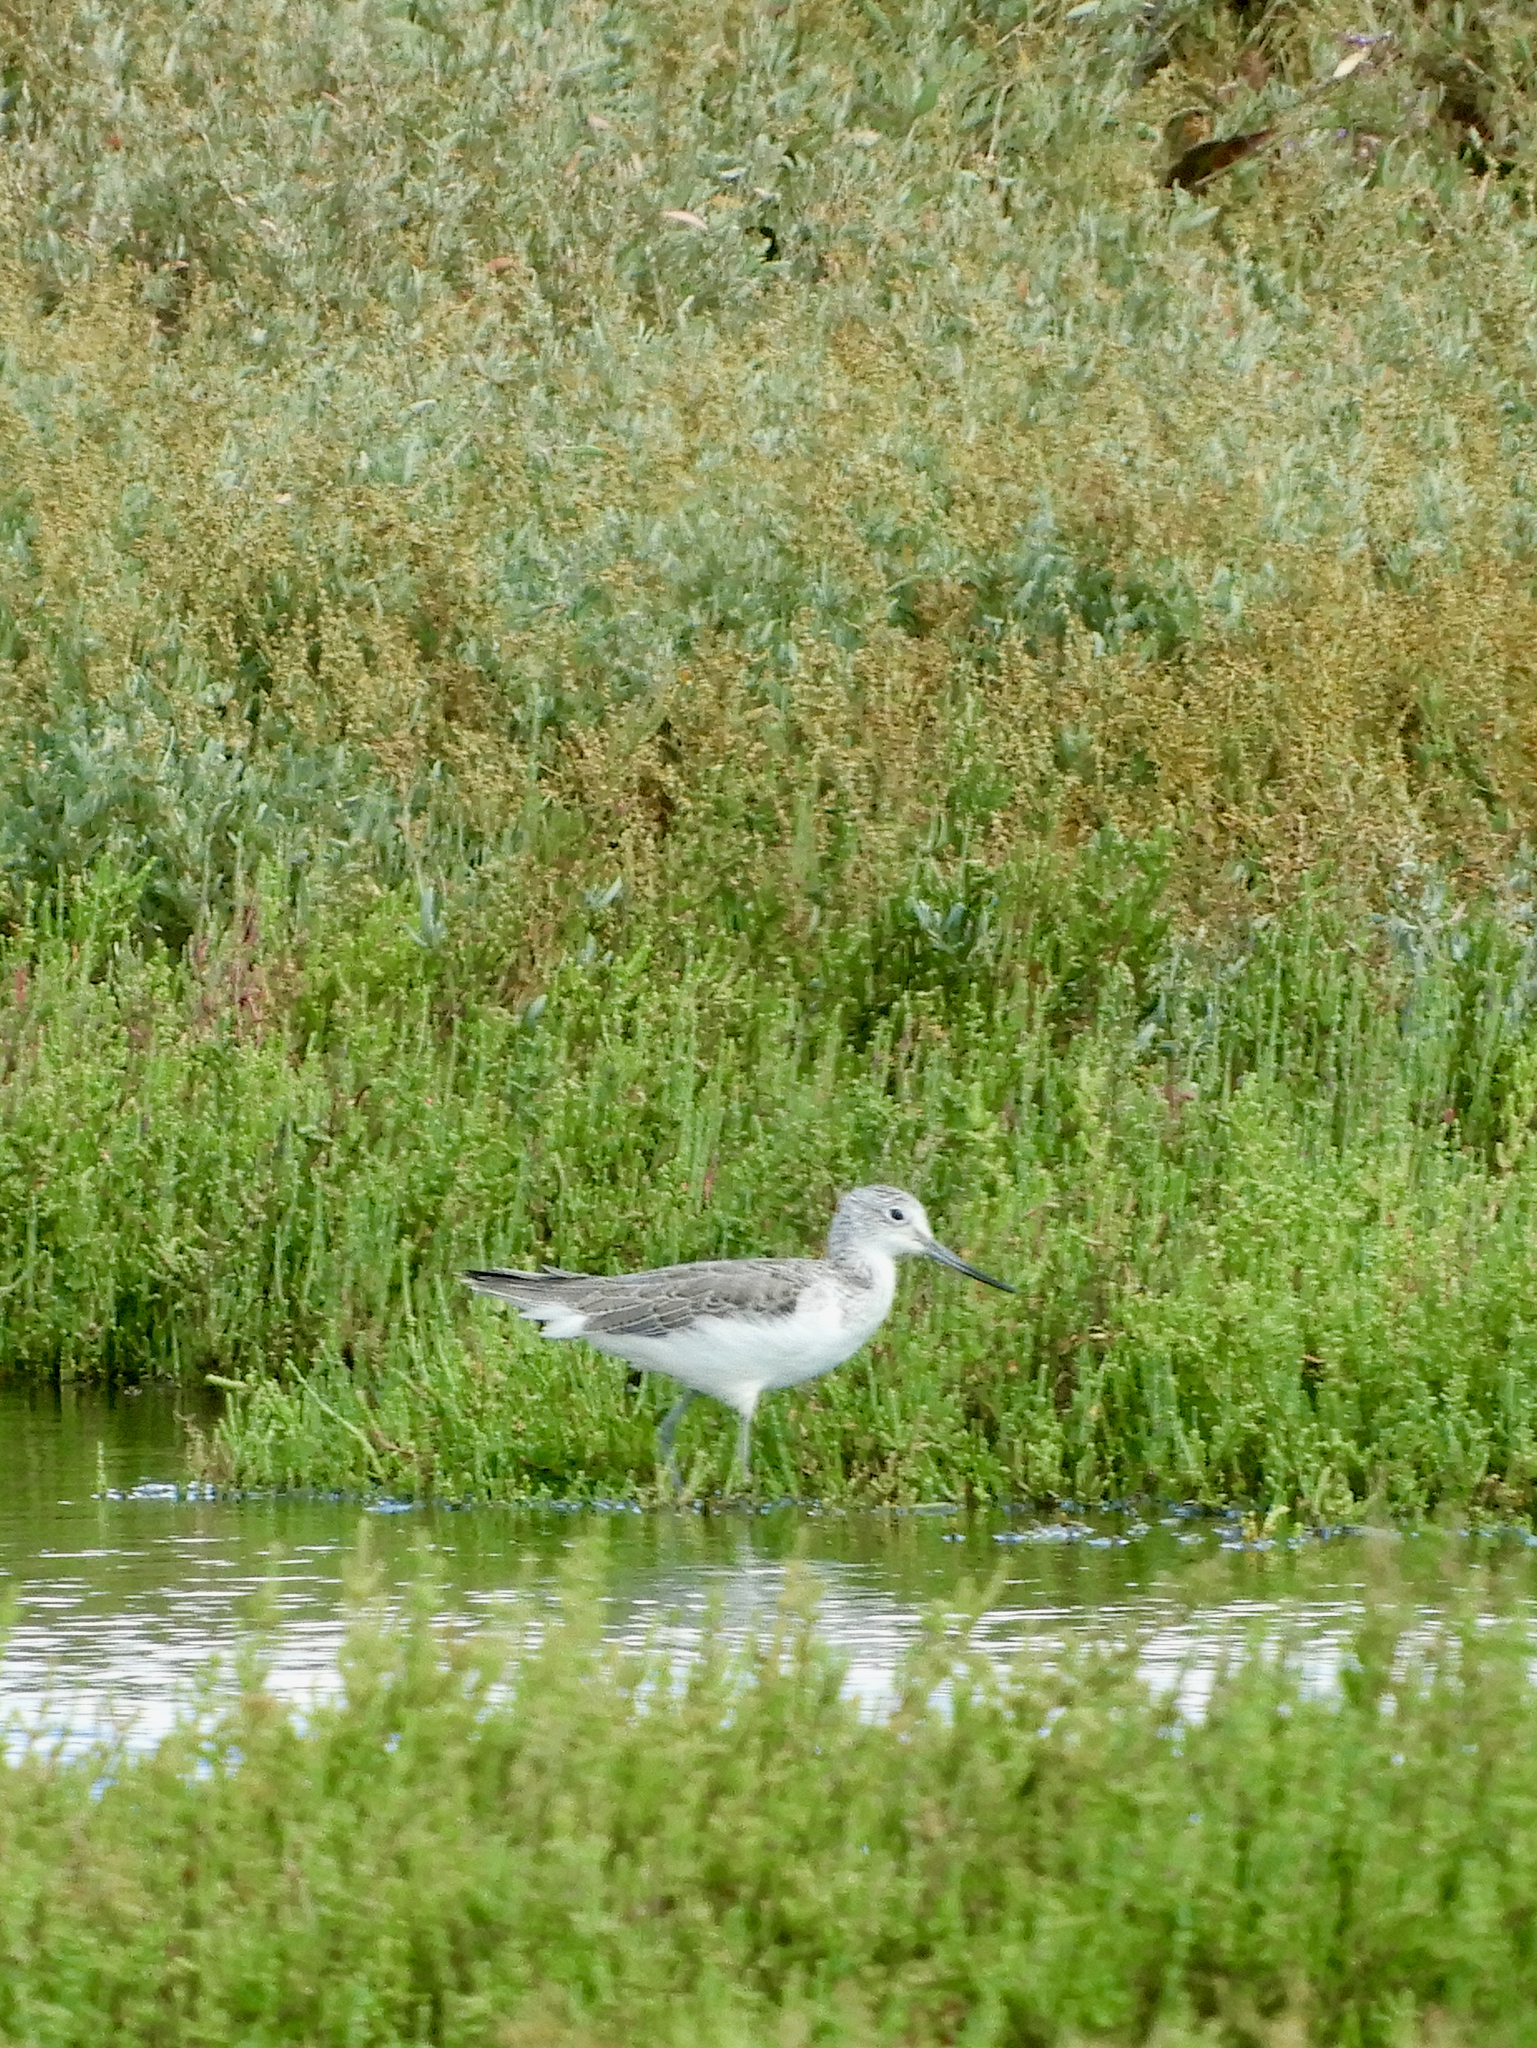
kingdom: Animalia
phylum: Chordata
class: Aves
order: Charadriiformes
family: Scolopacidae
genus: Tringa
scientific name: Tringa nebularia
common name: Common greenshank
